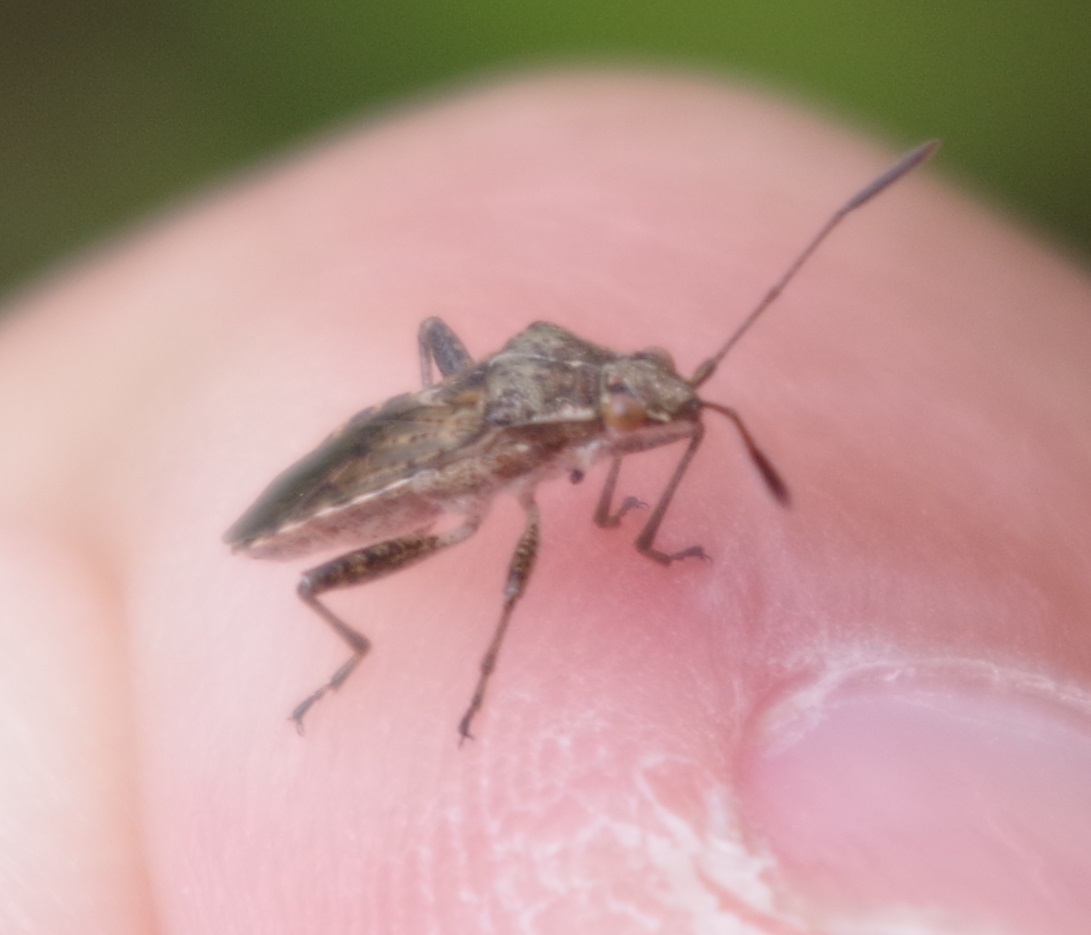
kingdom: Animalia
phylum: Arthropoda
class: Insecta
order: Hemiptera
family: Rhopalidae
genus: Stictopleurus
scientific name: Stictopleurus punctatonervosus
